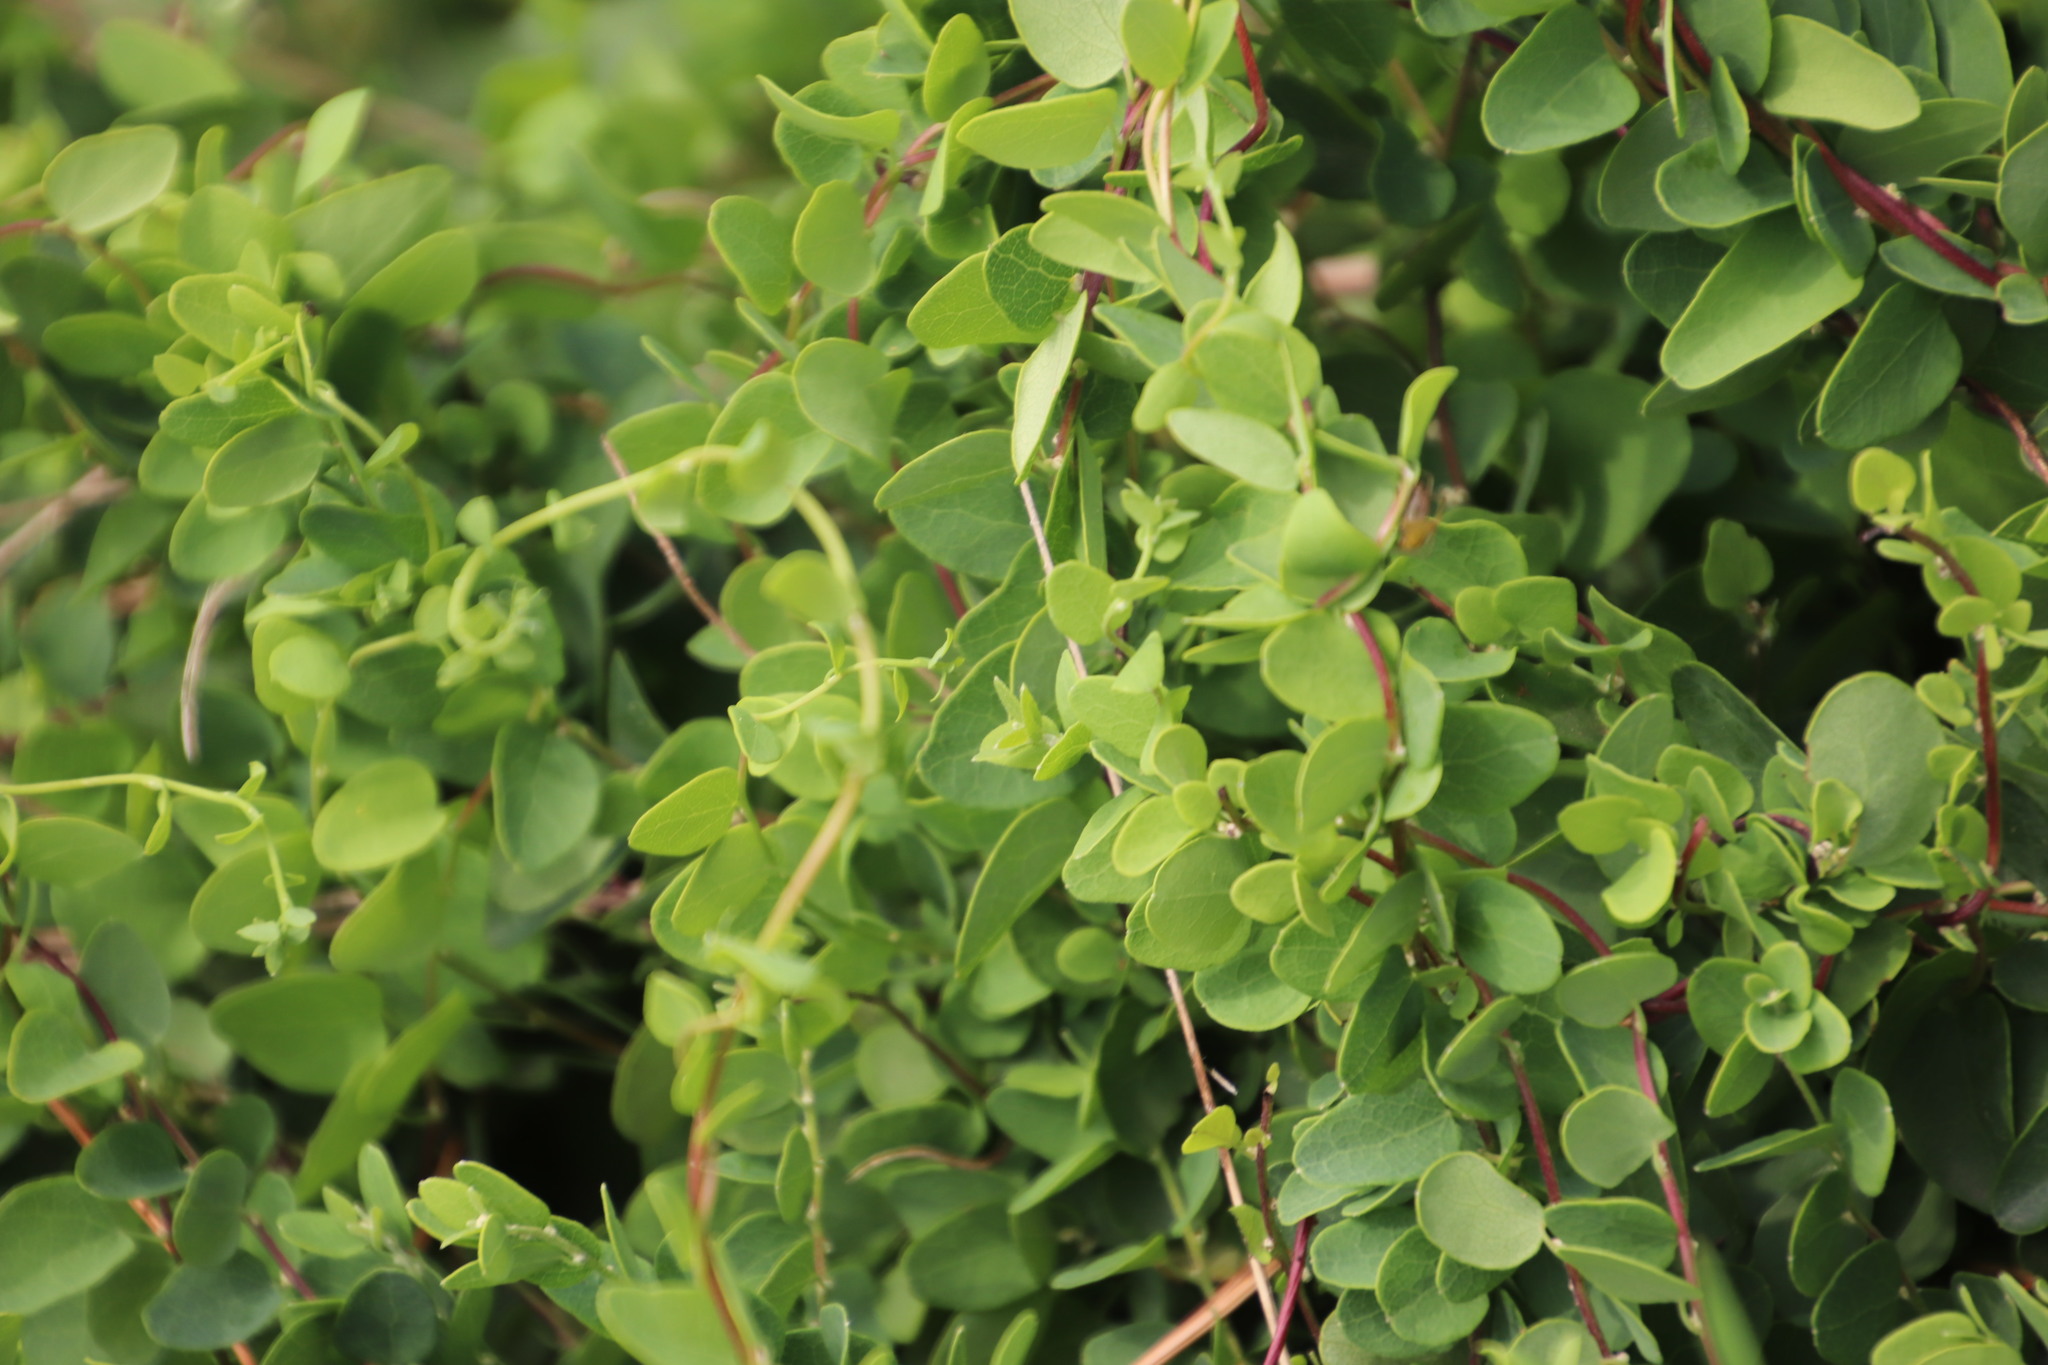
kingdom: Plantae
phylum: Tracheophyta
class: Magnoliopsida
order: Ranunculales
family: Menispermaceae
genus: Cissampelos
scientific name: Cissampelos capensis
